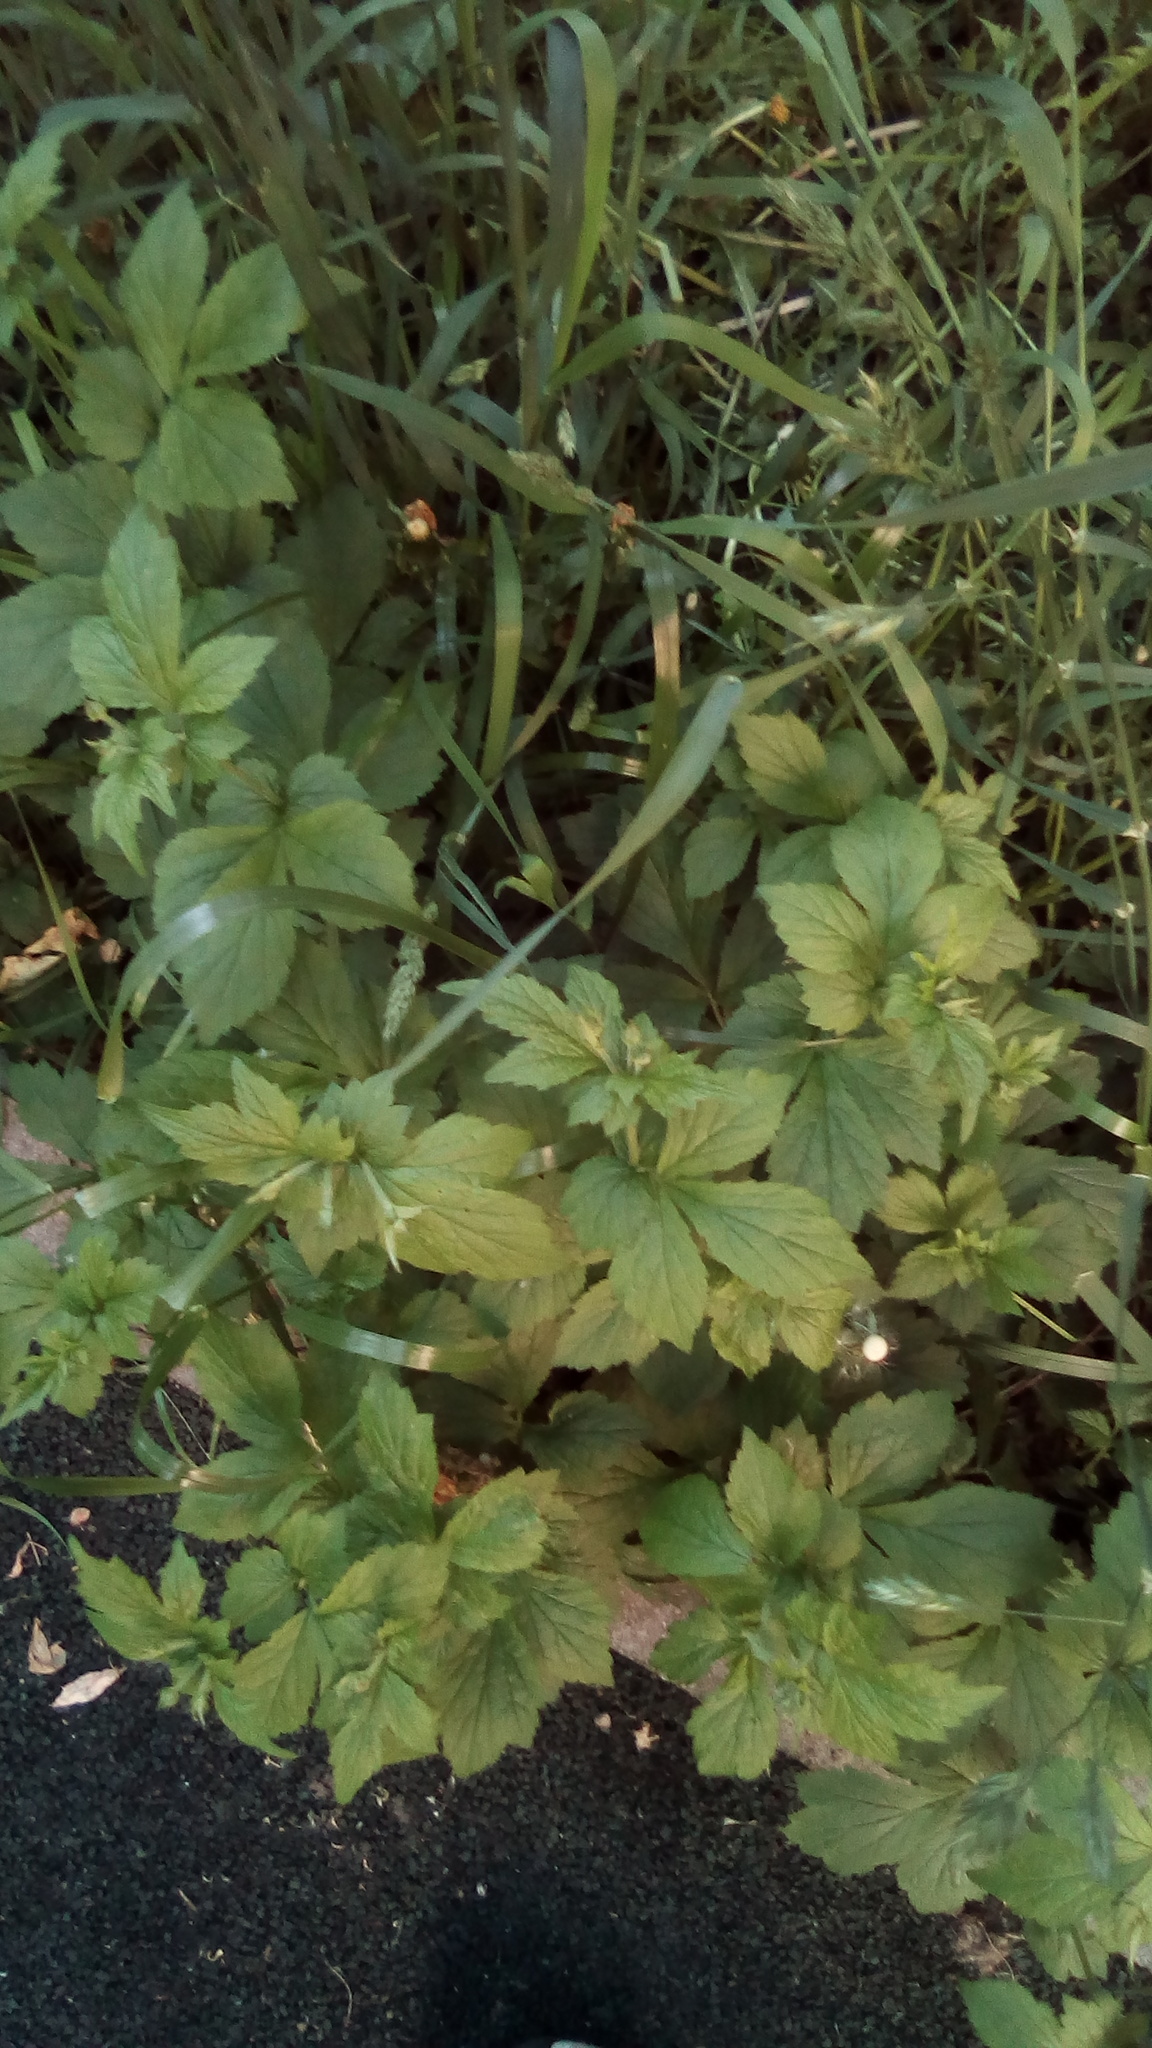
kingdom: Plantae
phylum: Tracheophyta
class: Magnoliopsida
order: Rosales
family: Rosaceae
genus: Geum
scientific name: Geum urbanum
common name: Wood avens
